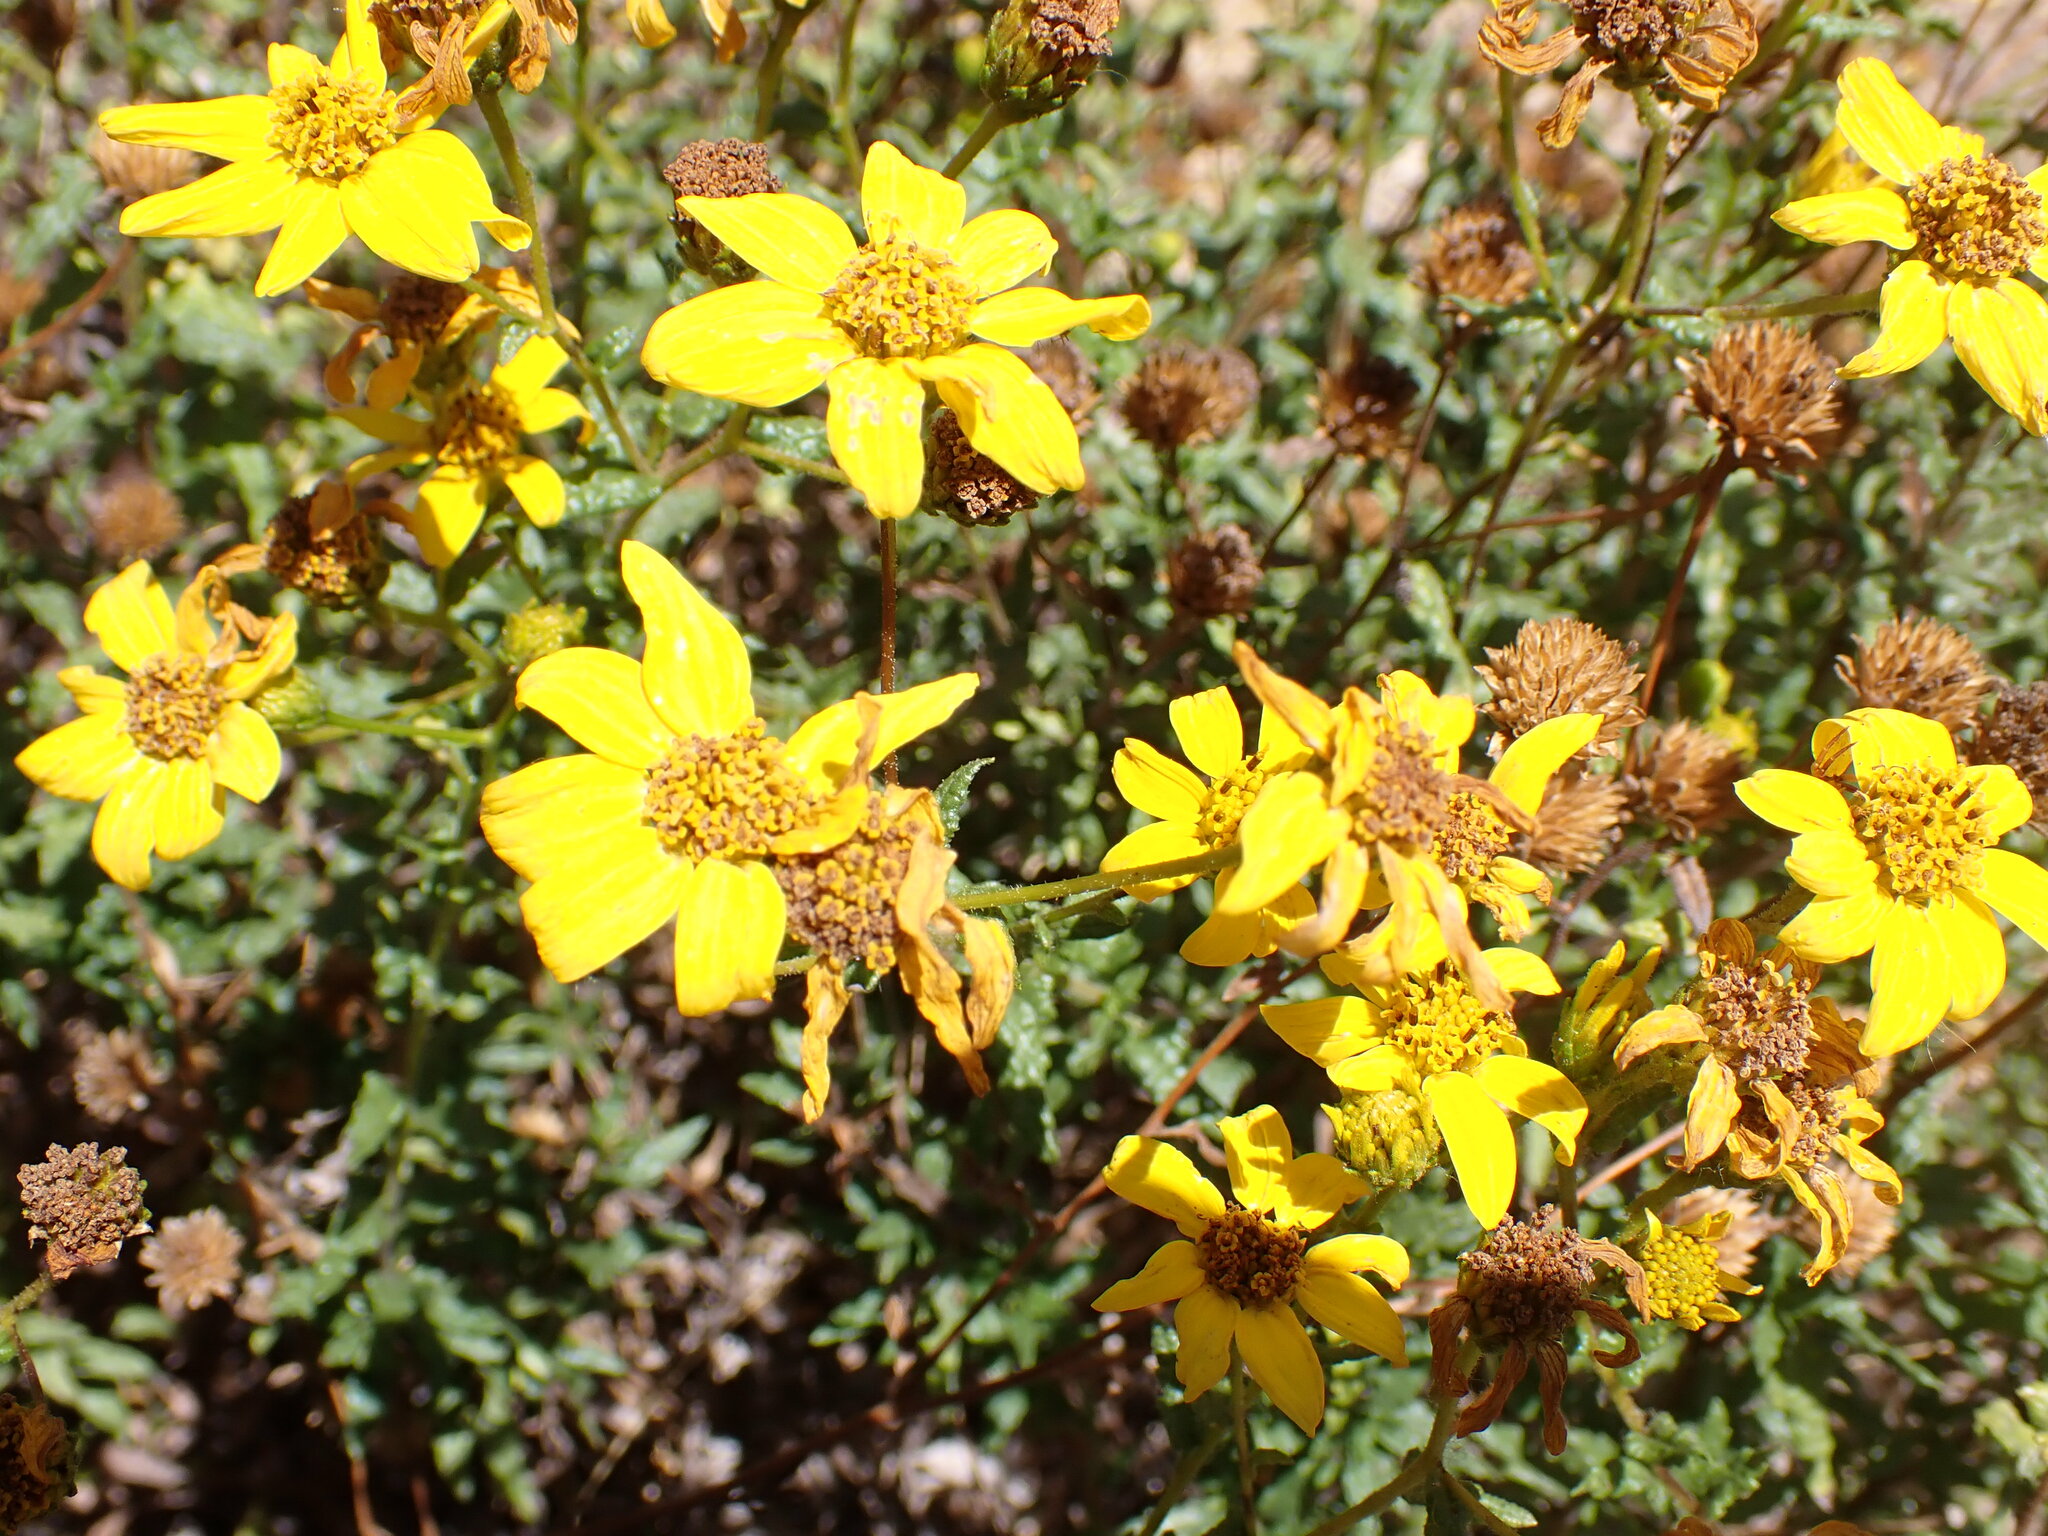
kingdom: Plantae
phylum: Tracheophyta
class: Magnoliopsida
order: Asterales
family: Asteraceae
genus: Bahiopsis
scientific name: Bahiopsis laciniata
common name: San diego county viguiera
